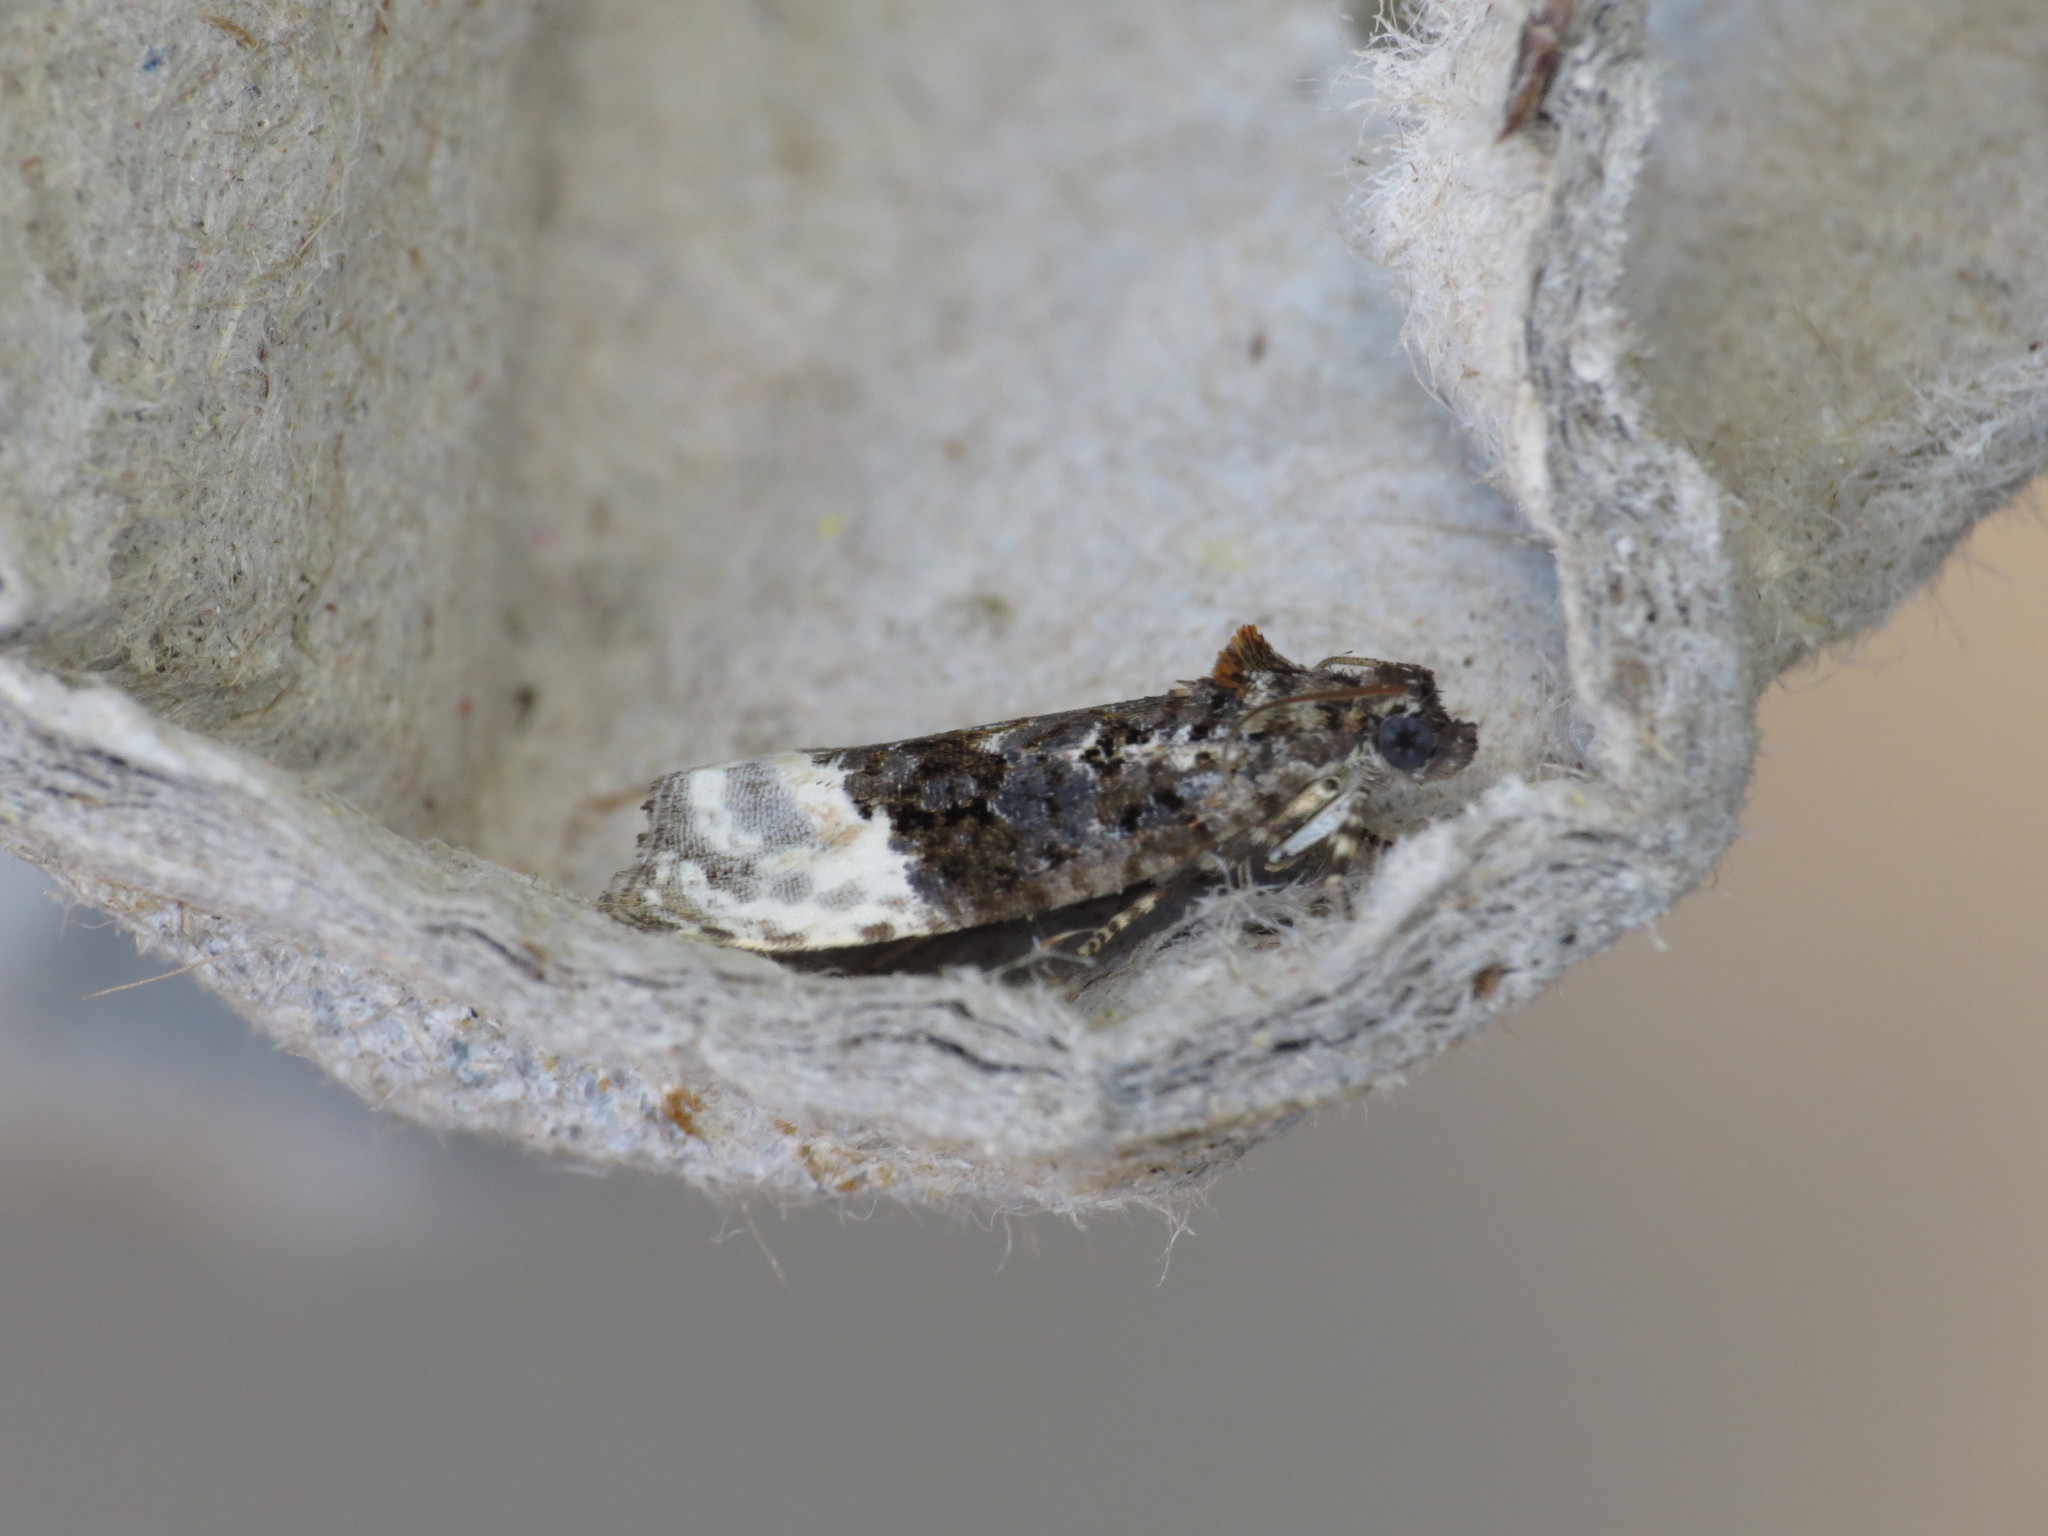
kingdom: Animalia
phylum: Arthropoda
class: Insecta
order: Lepidoptera
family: Tortricidae
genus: Apotomis
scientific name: Apotomis betuletana
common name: Birch marble
